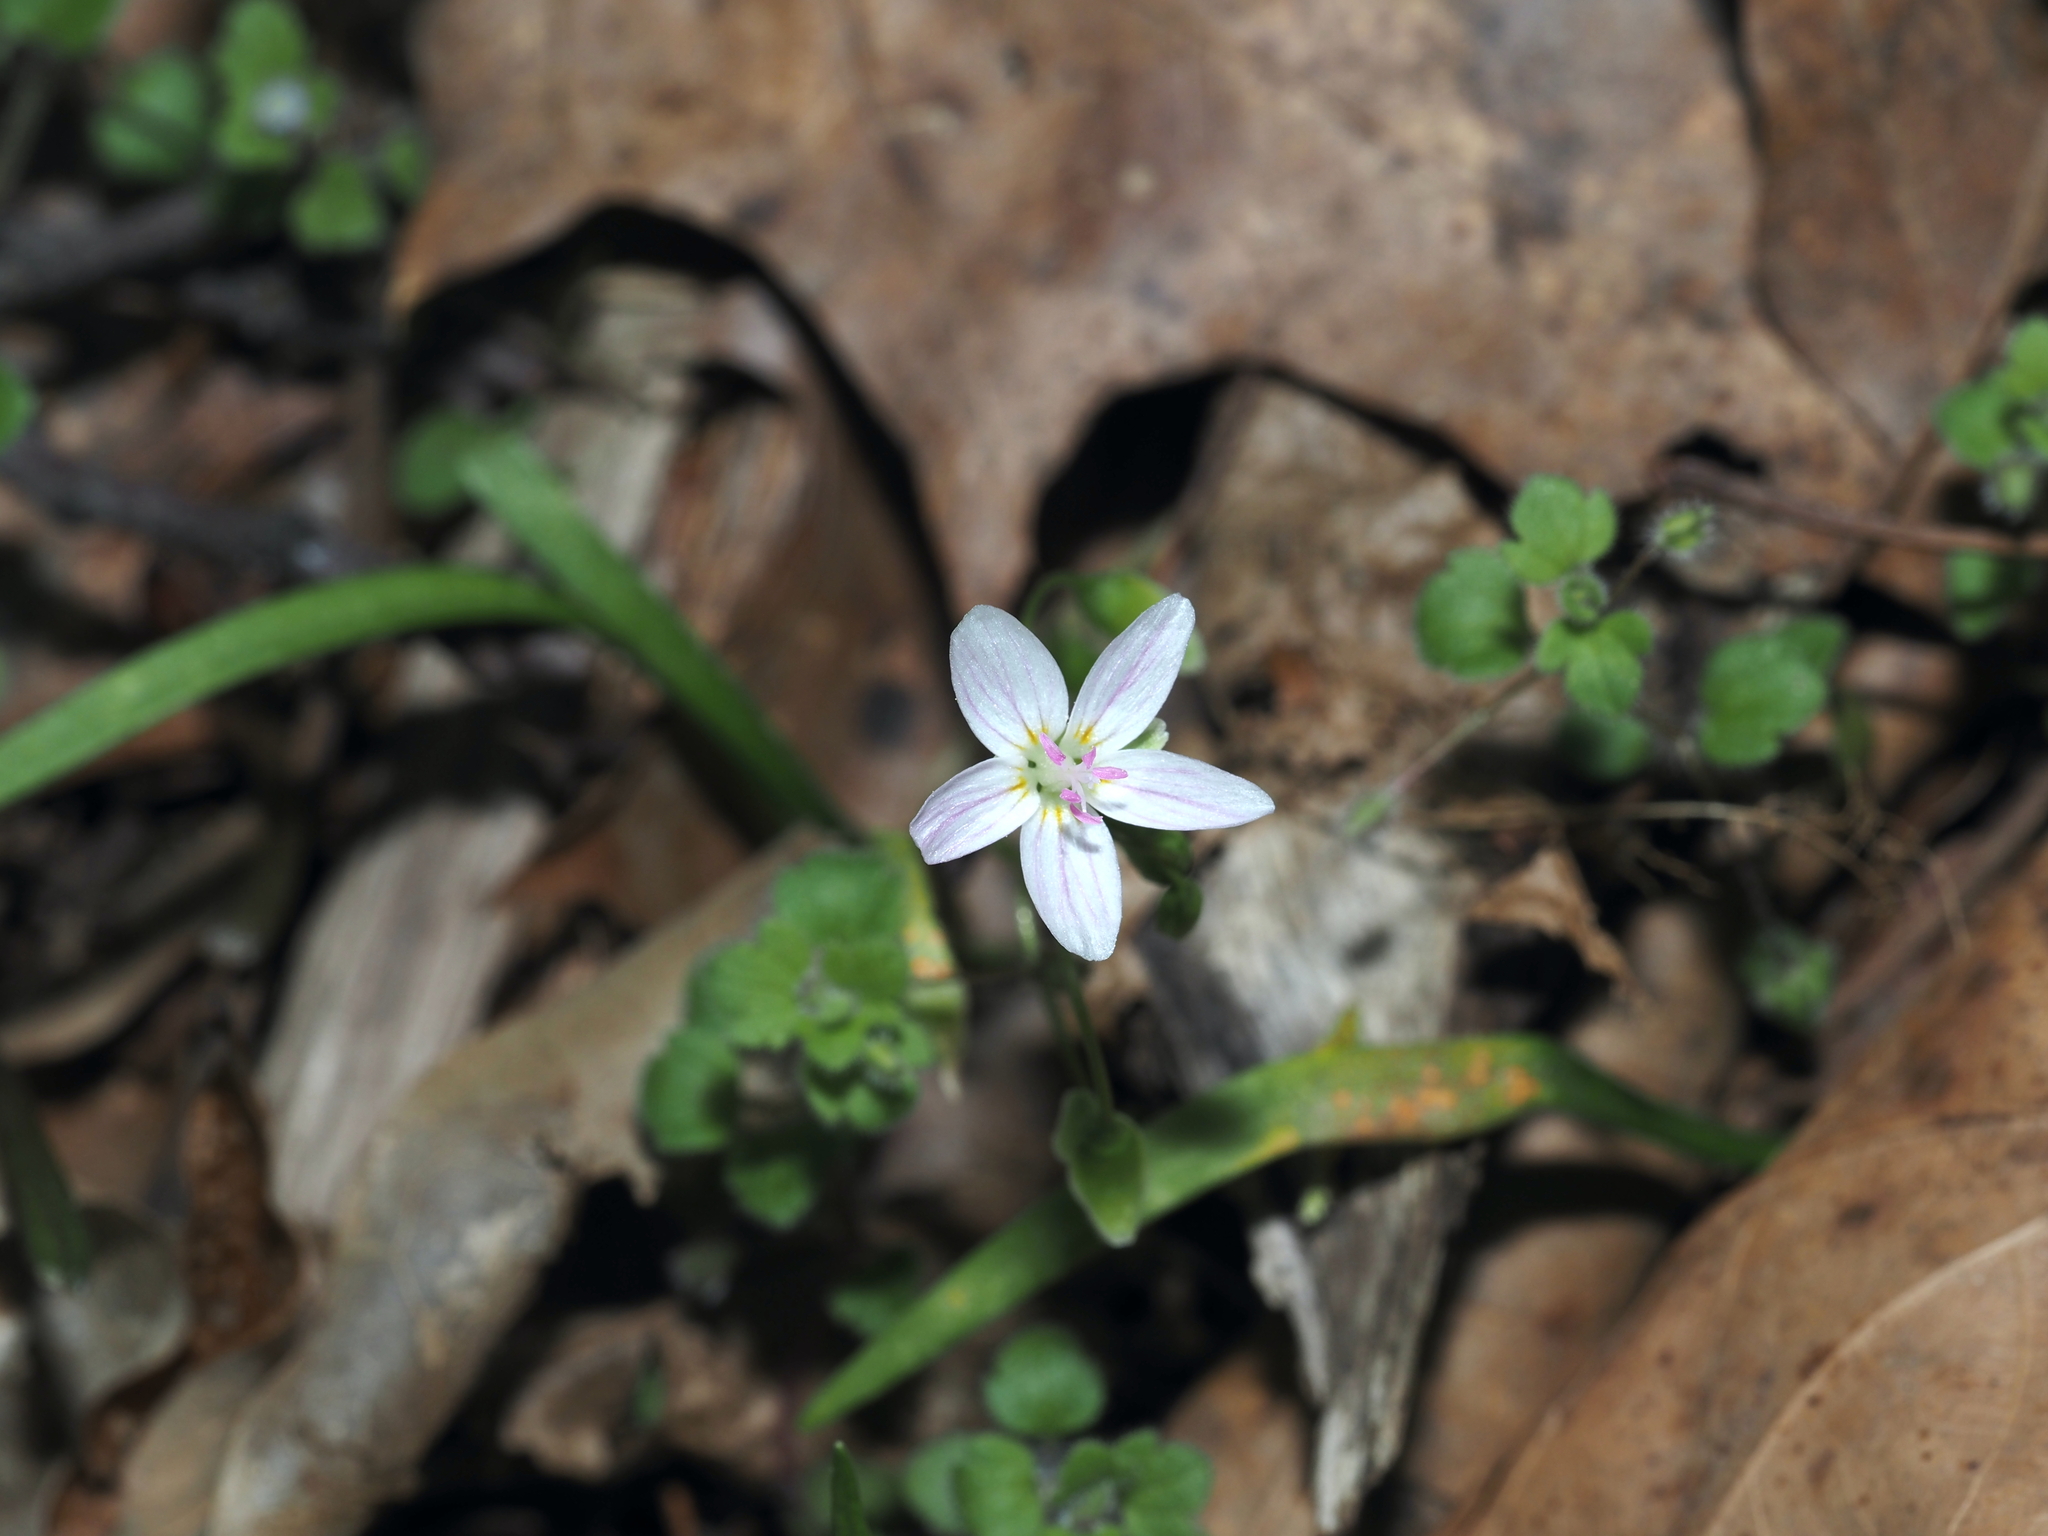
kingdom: Plantae
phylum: Tracheophyta
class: Magnoliopsida
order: Caryophyllales
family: Montiaceae
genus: Claytonia
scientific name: Claytonia virginica
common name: Virginia springbeauty
